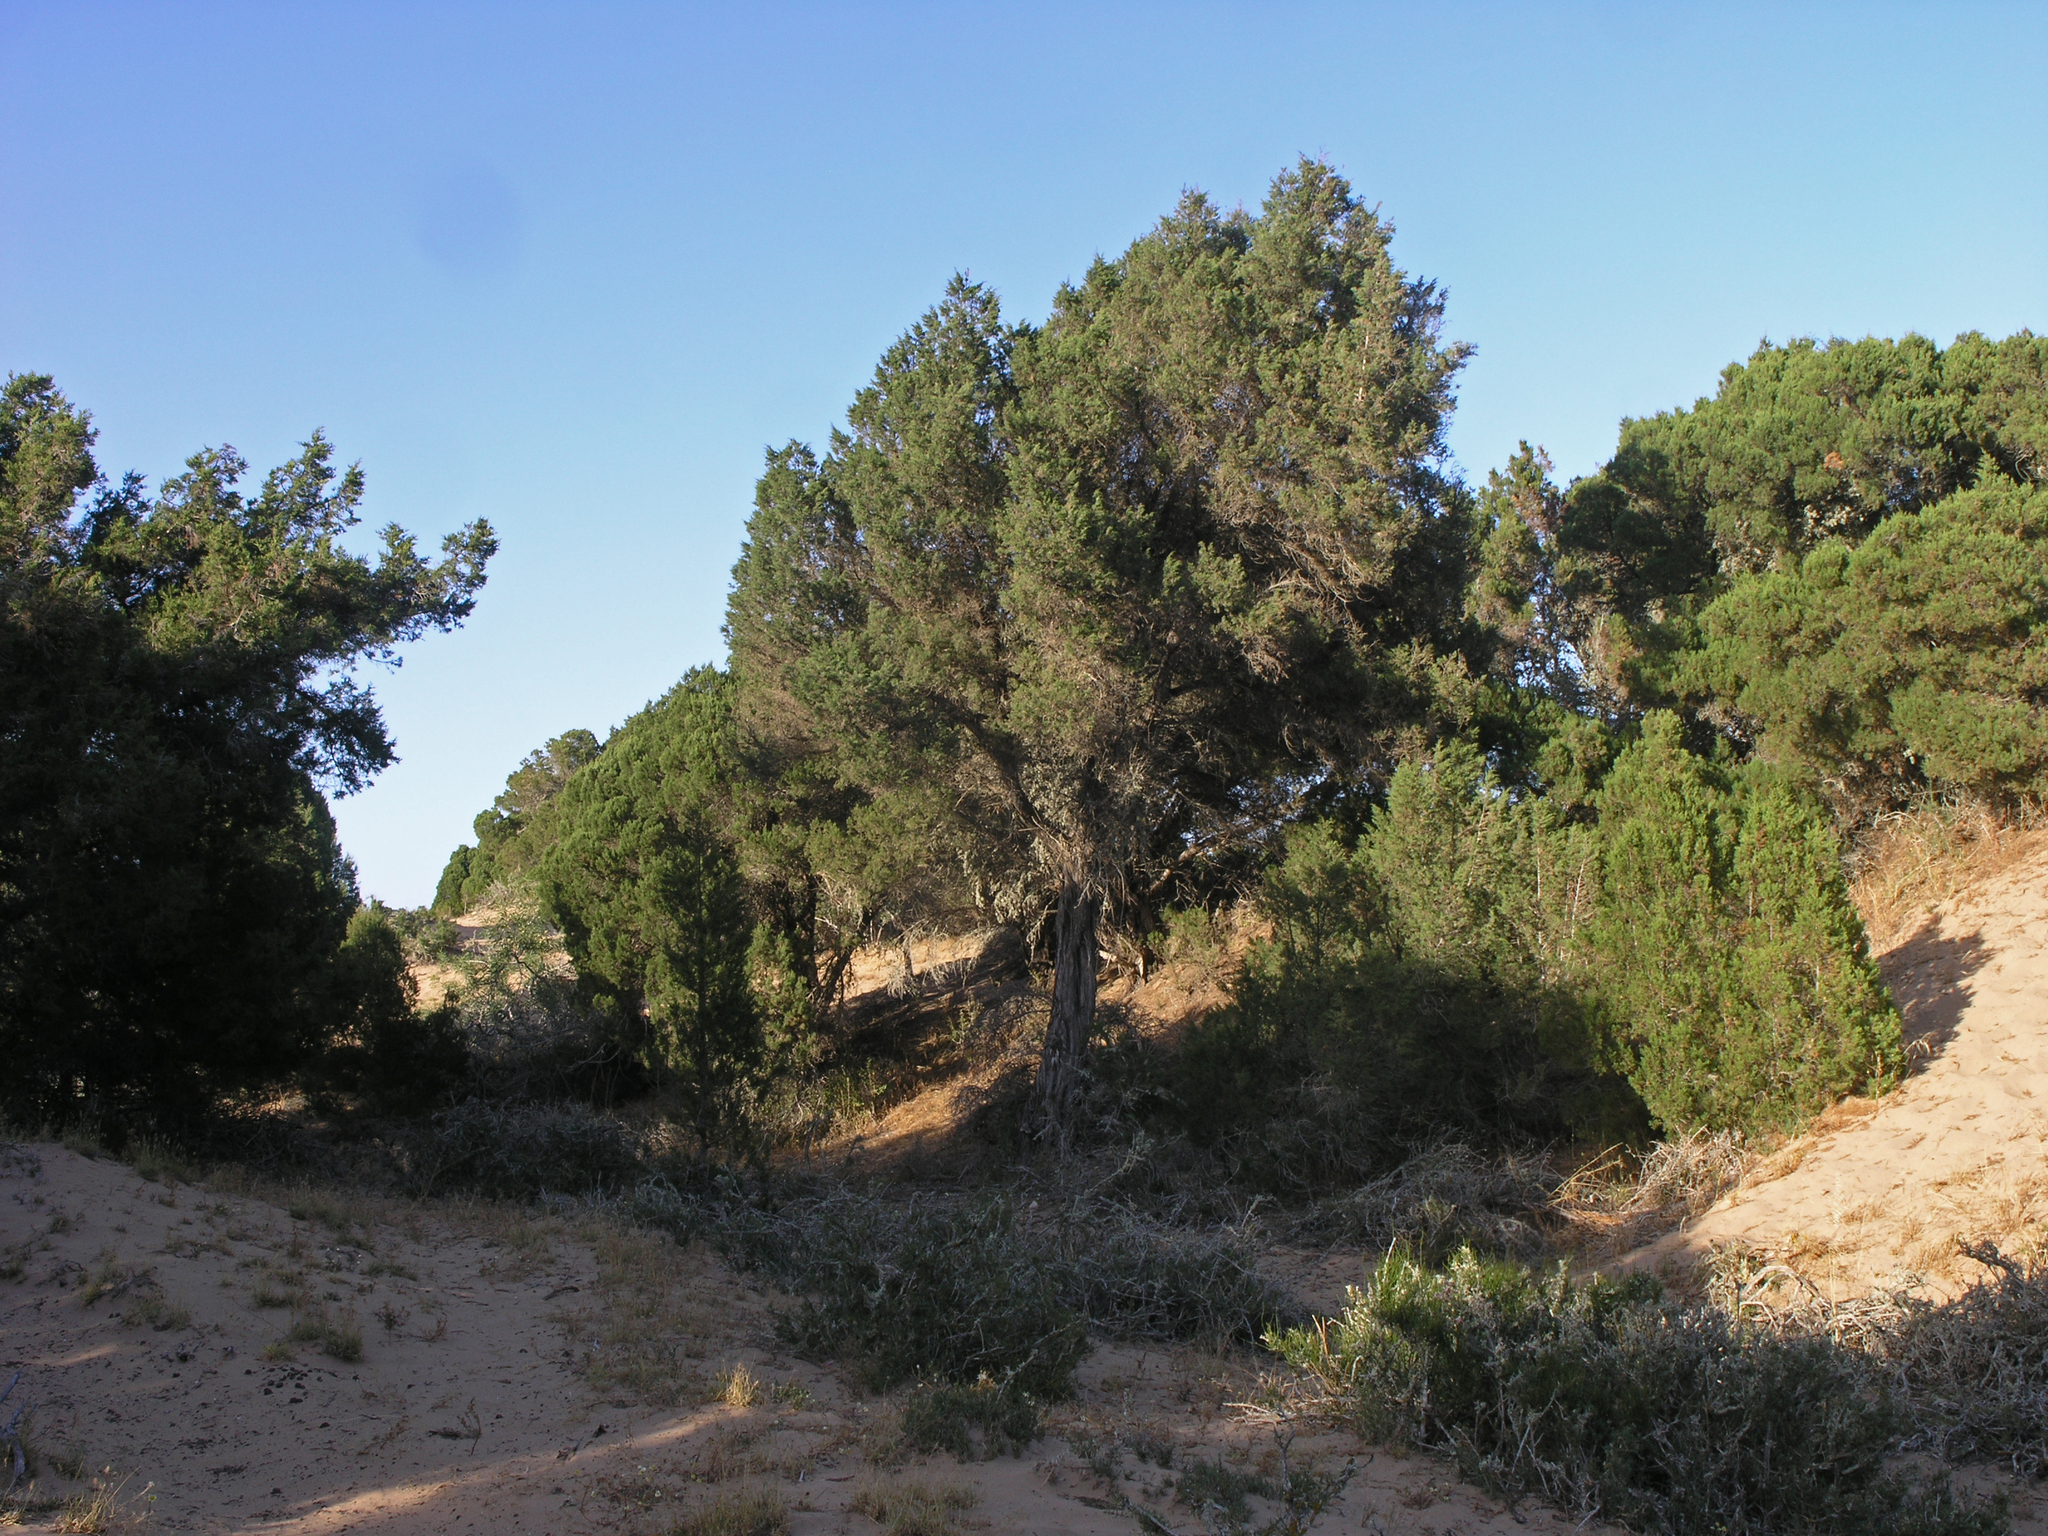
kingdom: Plantae
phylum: Tracheophyta
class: Pinopsida
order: Pinales
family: Cupressaceae
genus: Juniperus
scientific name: Juniperus phoenicea
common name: Phoenician juniper
